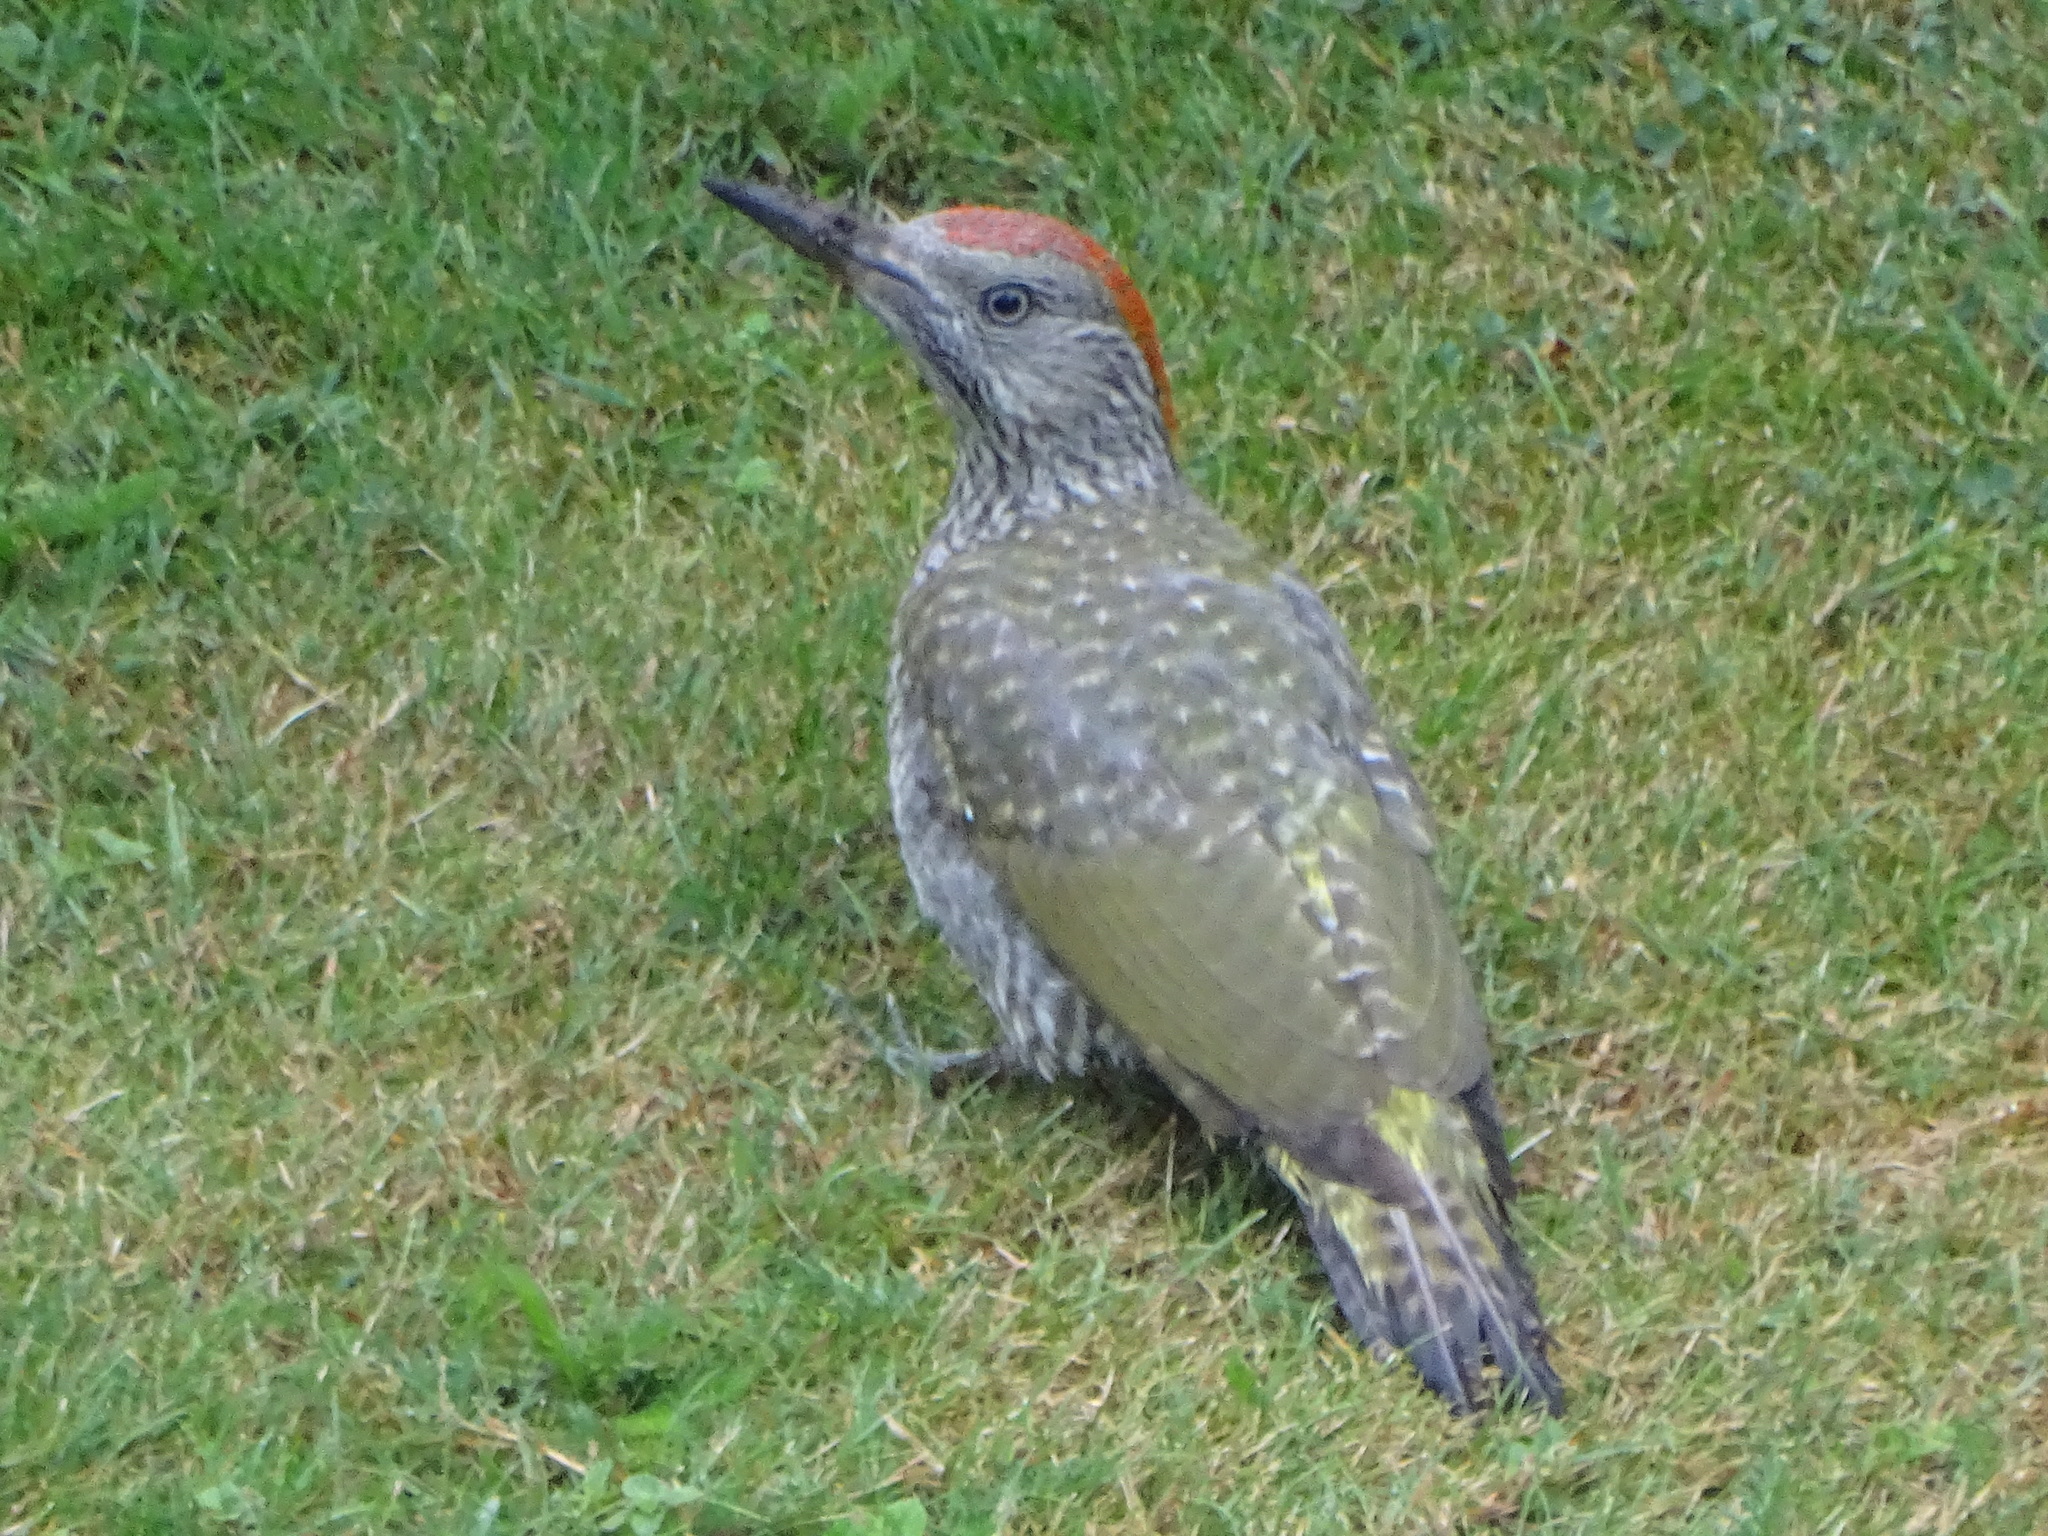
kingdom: Animalia
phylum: Chordata
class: Aves
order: Piciformes
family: Picidae
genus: Picus
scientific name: Picus viridis
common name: European green woodpecker
